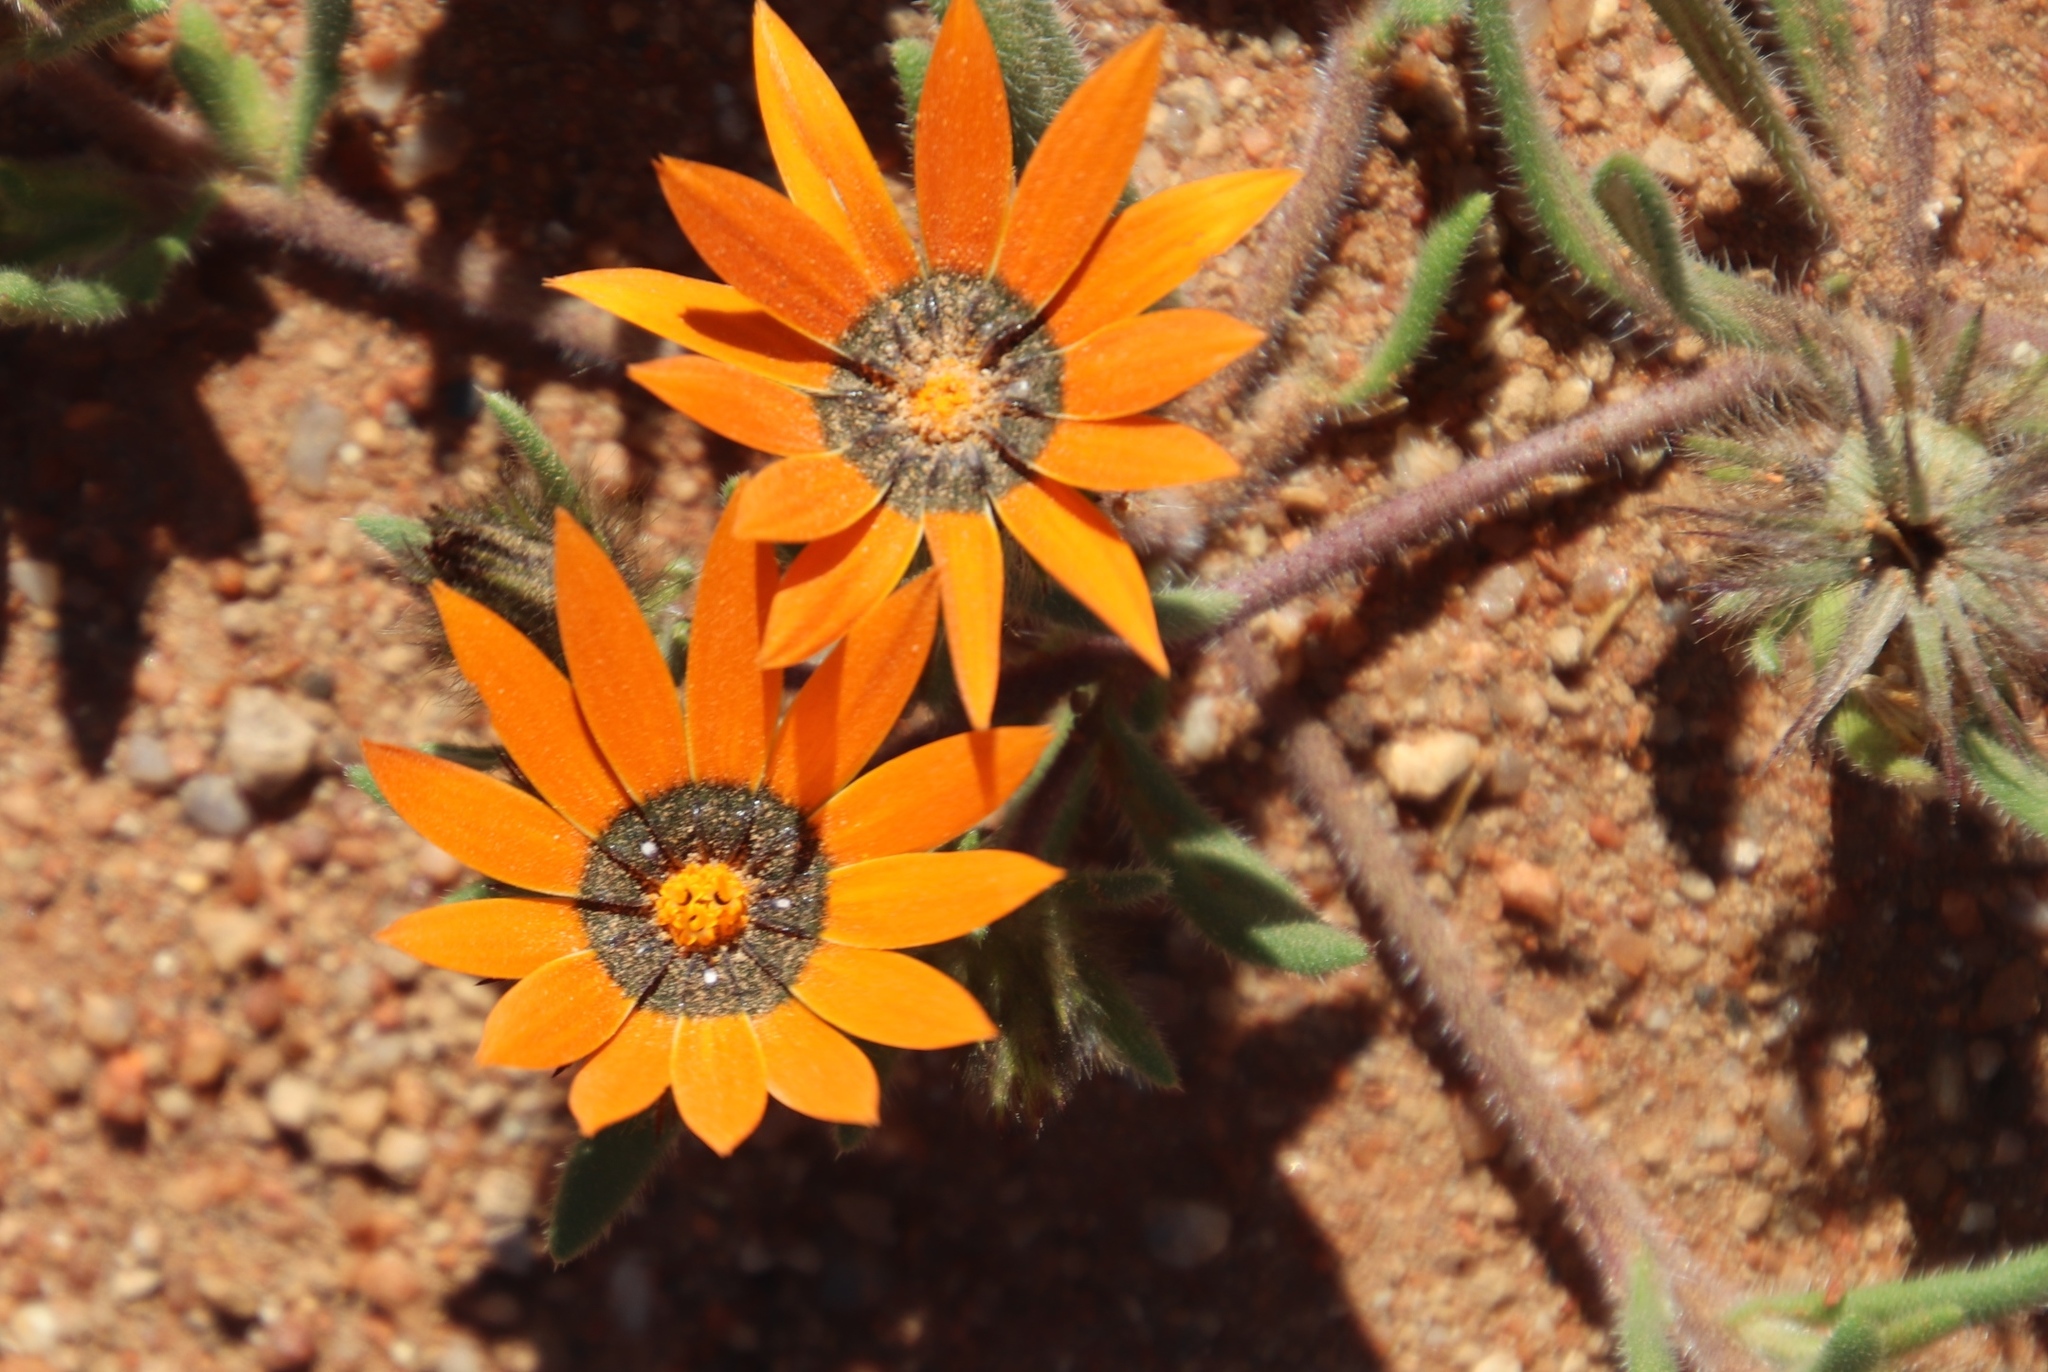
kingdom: Plantae
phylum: Tracheophyta
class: Magnoliopsida
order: Asterales
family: Asteraceae
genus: Gorteria
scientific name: Gorteria diffusa
